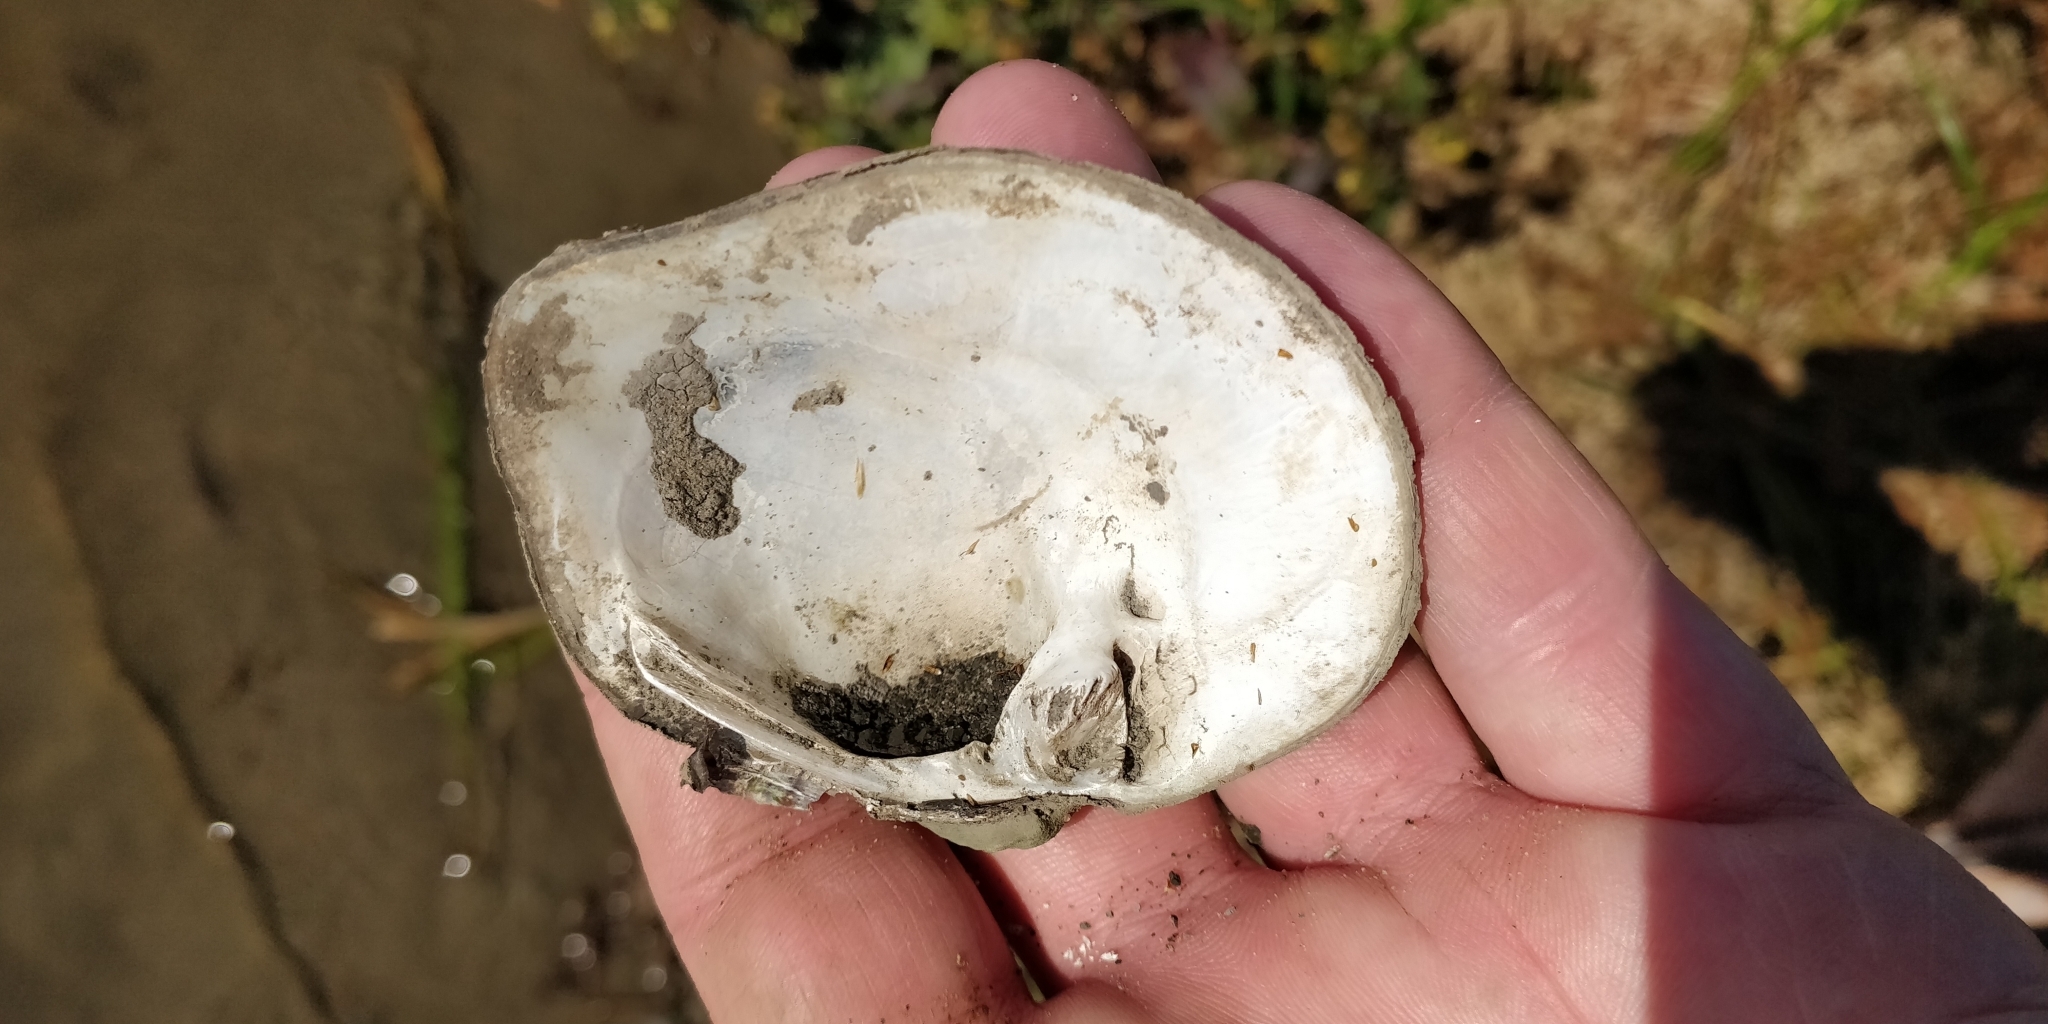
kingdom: Animalia
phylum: Mollusca
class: Bivalvia
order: Unionida
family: Unionidae
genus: Quadrula
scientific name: Quadrula quadrula
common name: Mapleleaf
